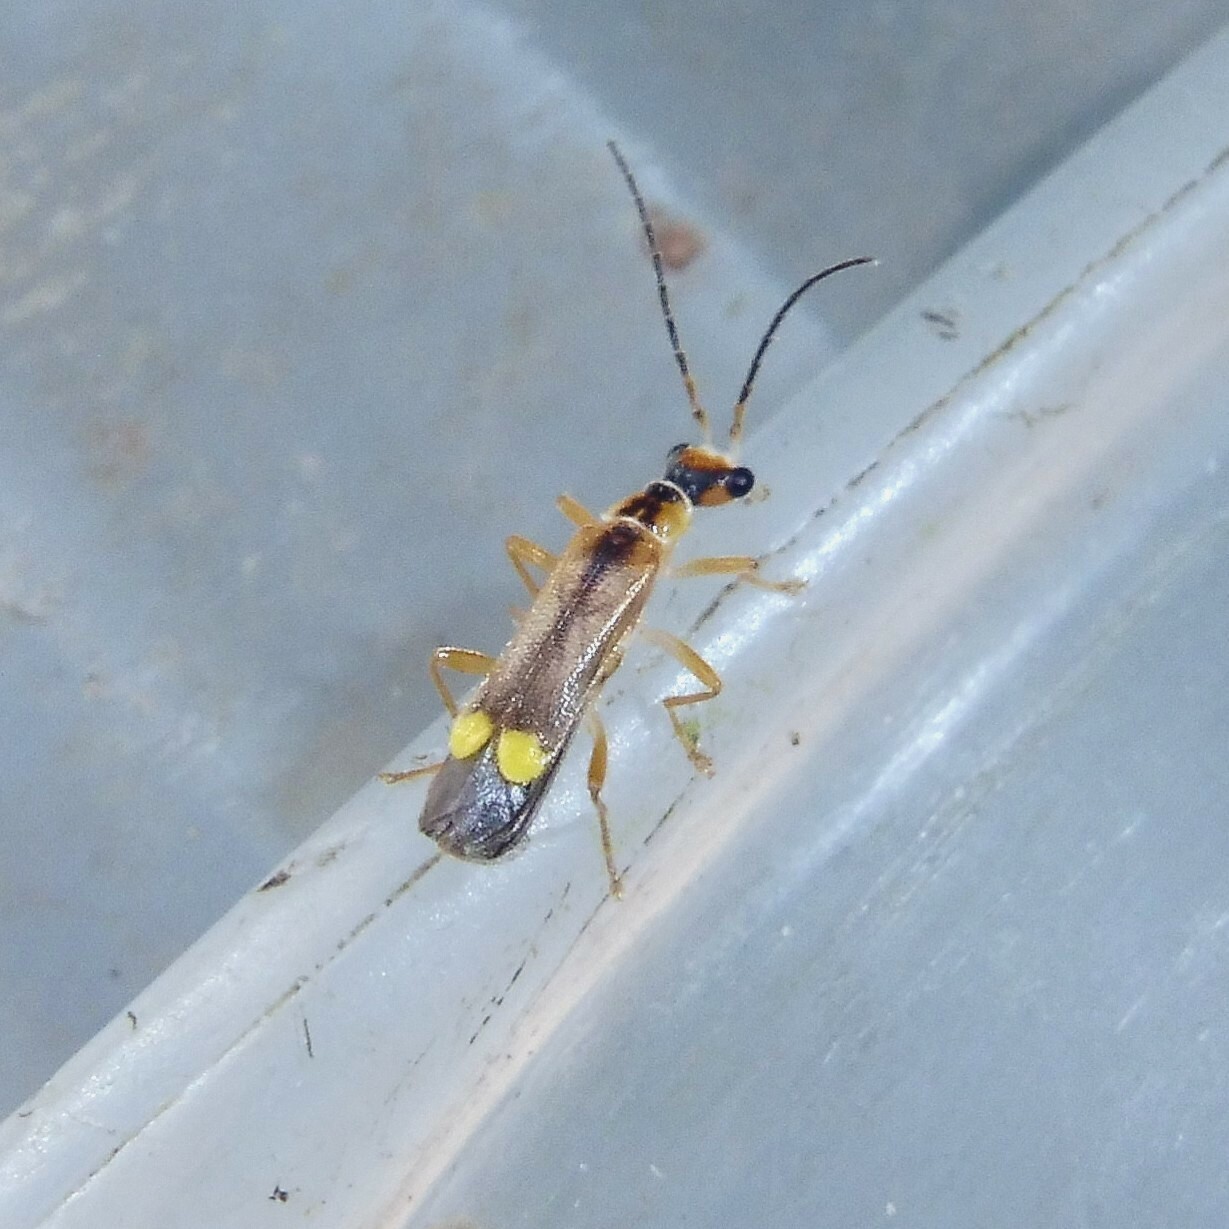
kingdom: Animalia
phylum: Arthropoda
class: Insecta
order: Coleoptera
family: Cantharidae
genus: Malthinus
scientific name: Malthinus seriepunctatus
